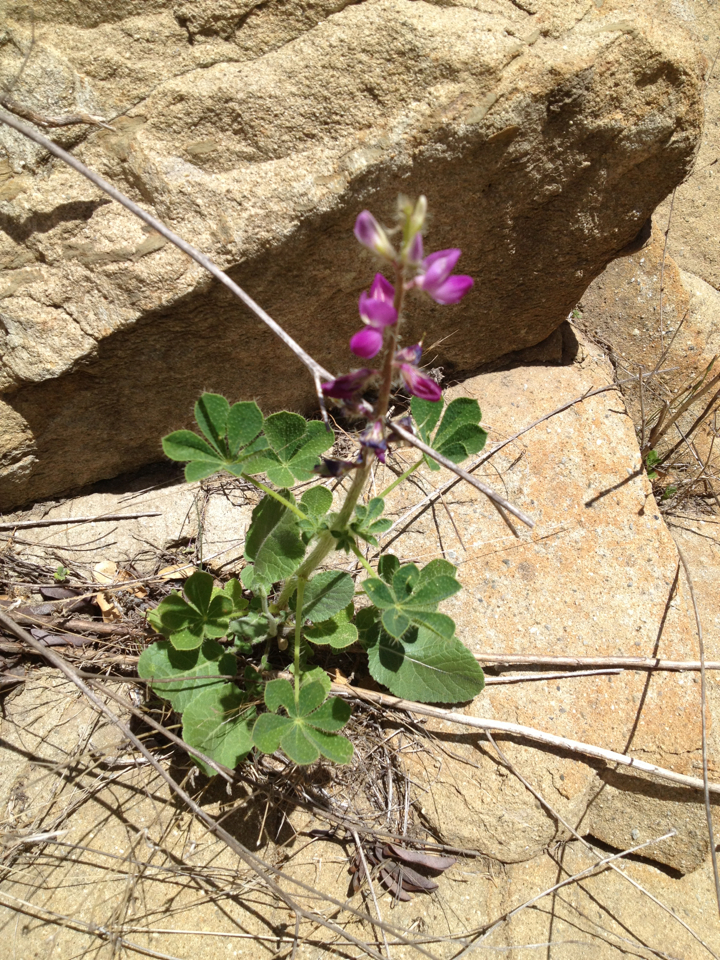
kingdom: Plantae
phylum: Tracheophyta
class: Magnoliopsida
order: Fabales
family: Fabaceae
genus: Lupinus
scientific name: Lupinus hirsutissimus
